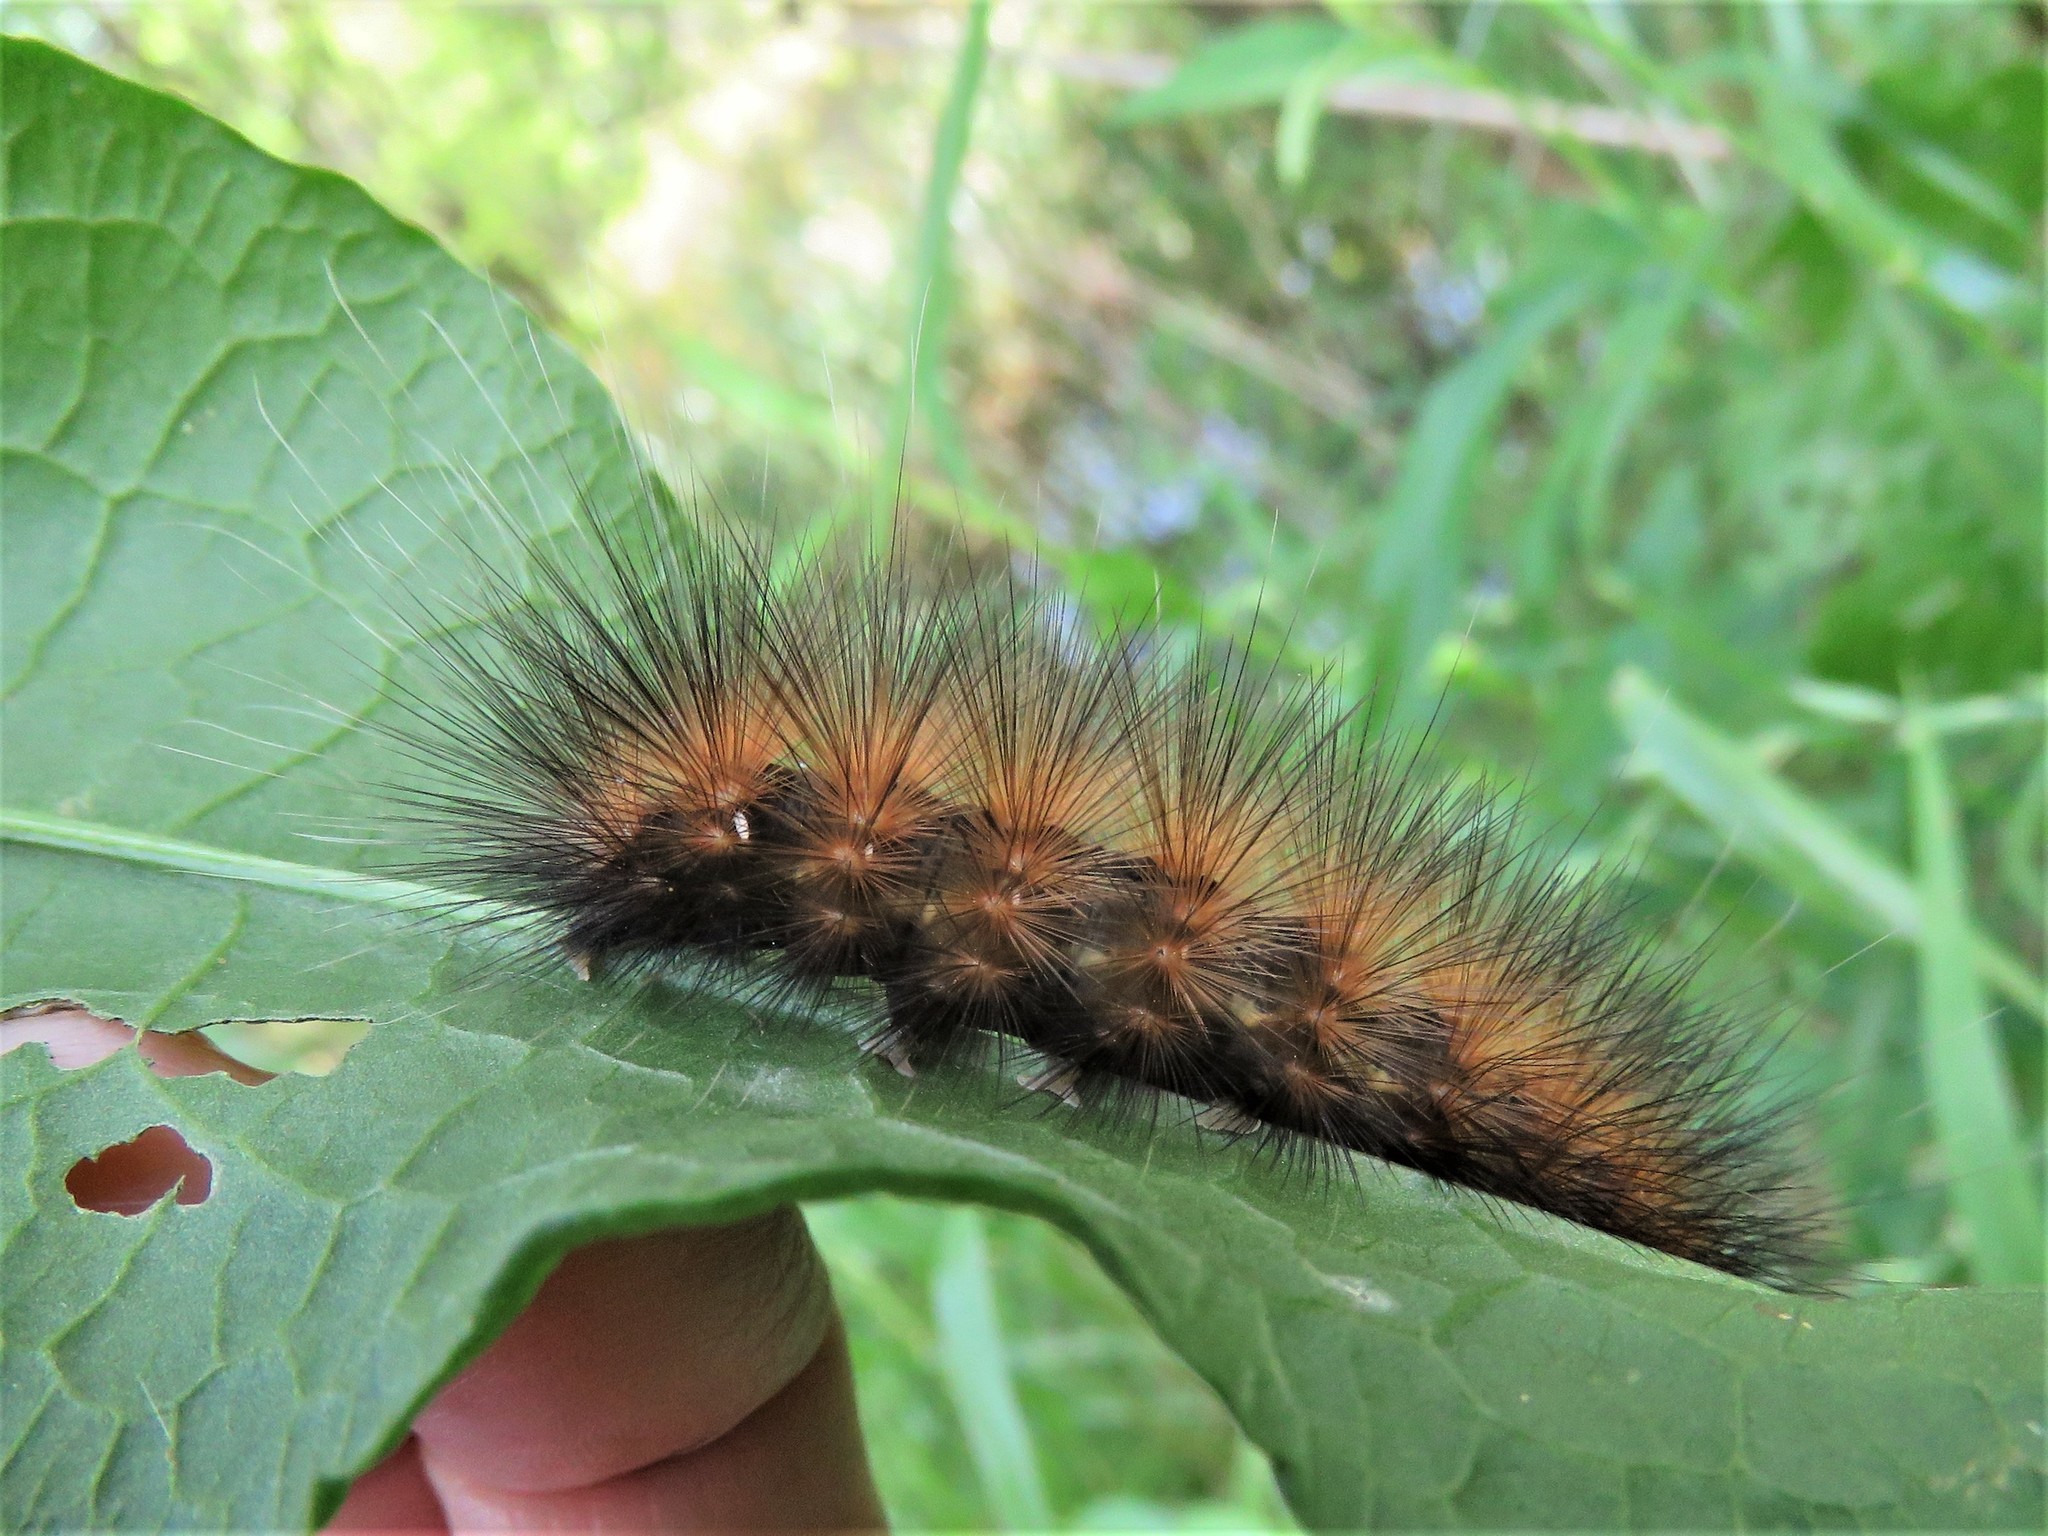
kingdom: Animalia
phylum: Arthropoda
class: Insecta
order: Lepidoptera
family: Erebidae
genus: Spilosoma
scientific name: Spilosoma virginica
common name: Virginia tiger moth
